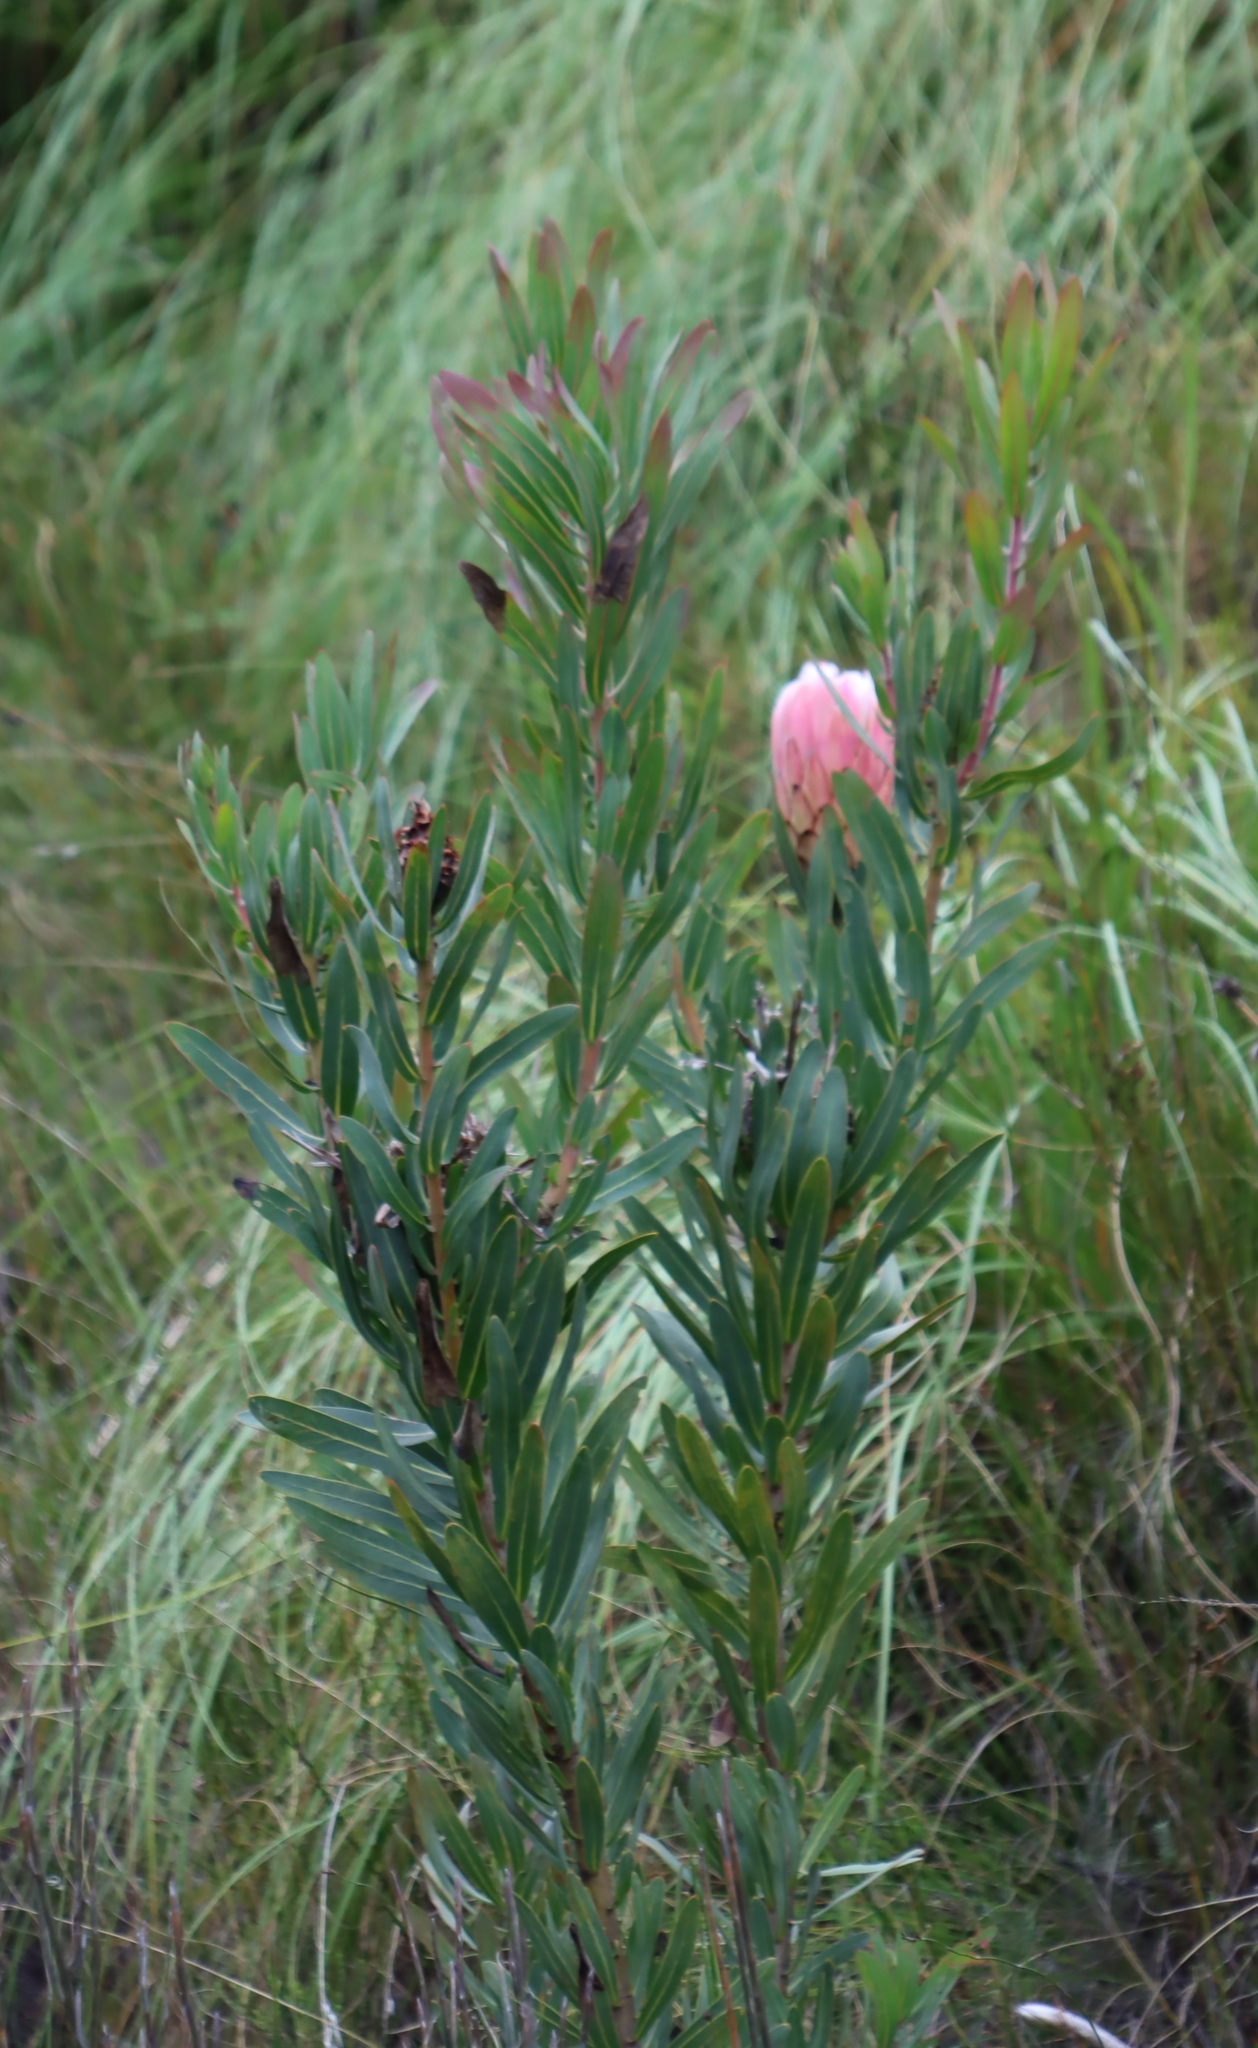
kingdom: Plantae
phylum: Tracheophyta
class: Magnoliopsida
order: Proteales
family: Proteaceae
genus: Protea
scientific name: Protea neriifolia
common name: Blue sugarbush
